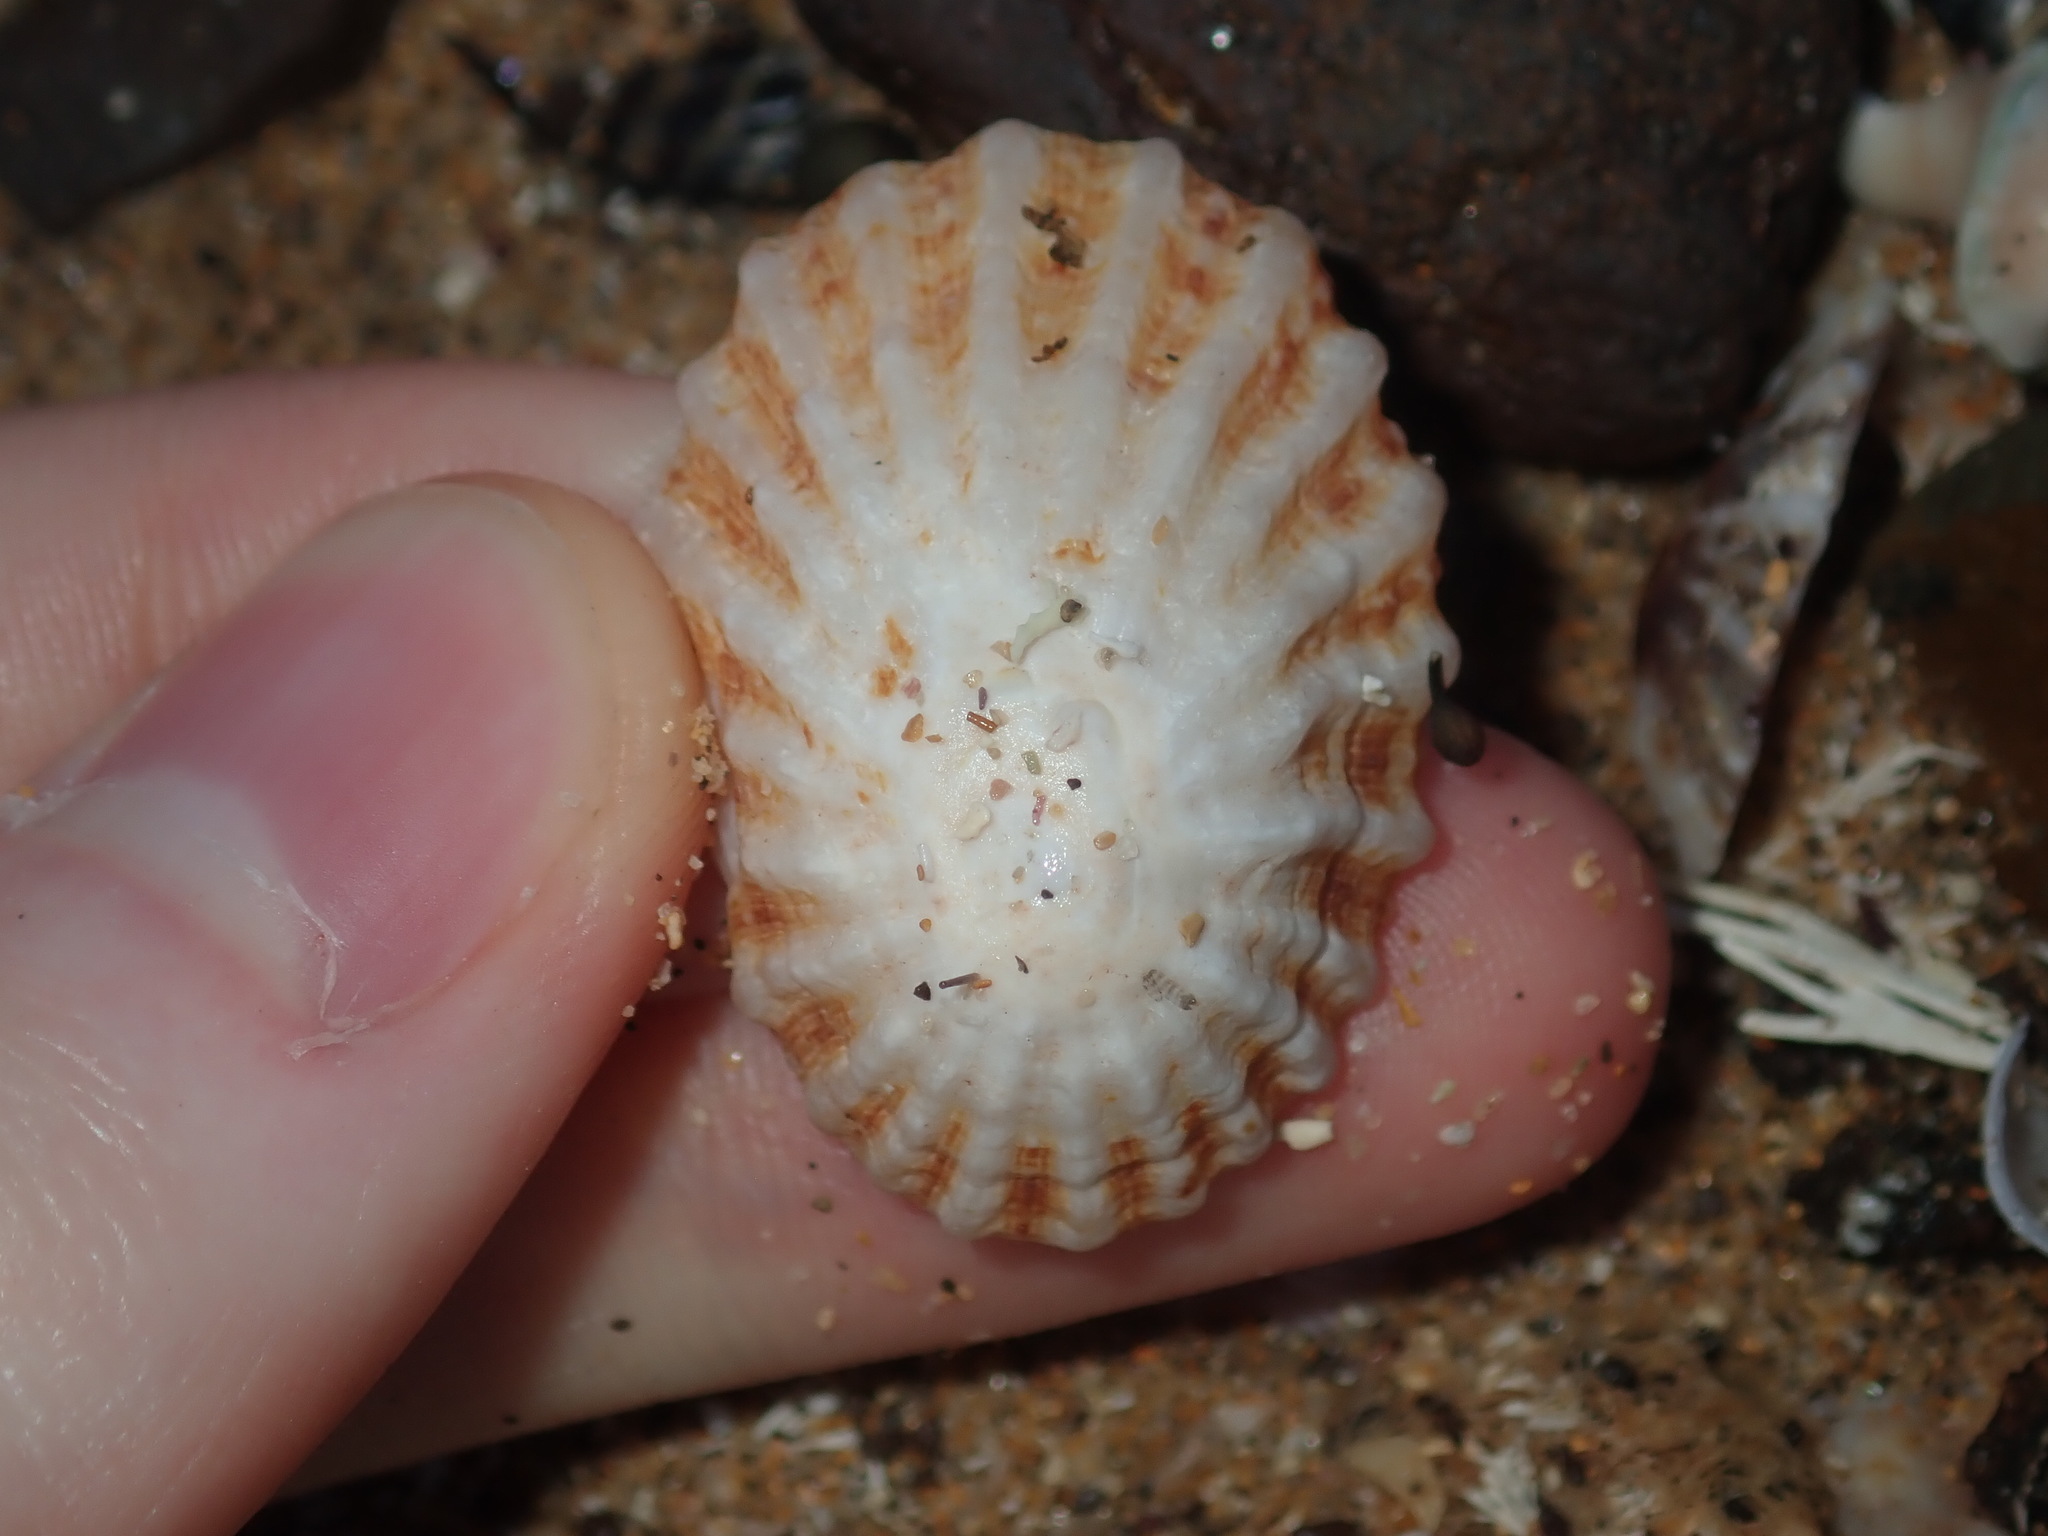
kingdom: Animalia
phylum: Mollusca
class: Gastropoda
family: Patellidae
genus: Scutellastra
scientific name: Scutellastra peronii
